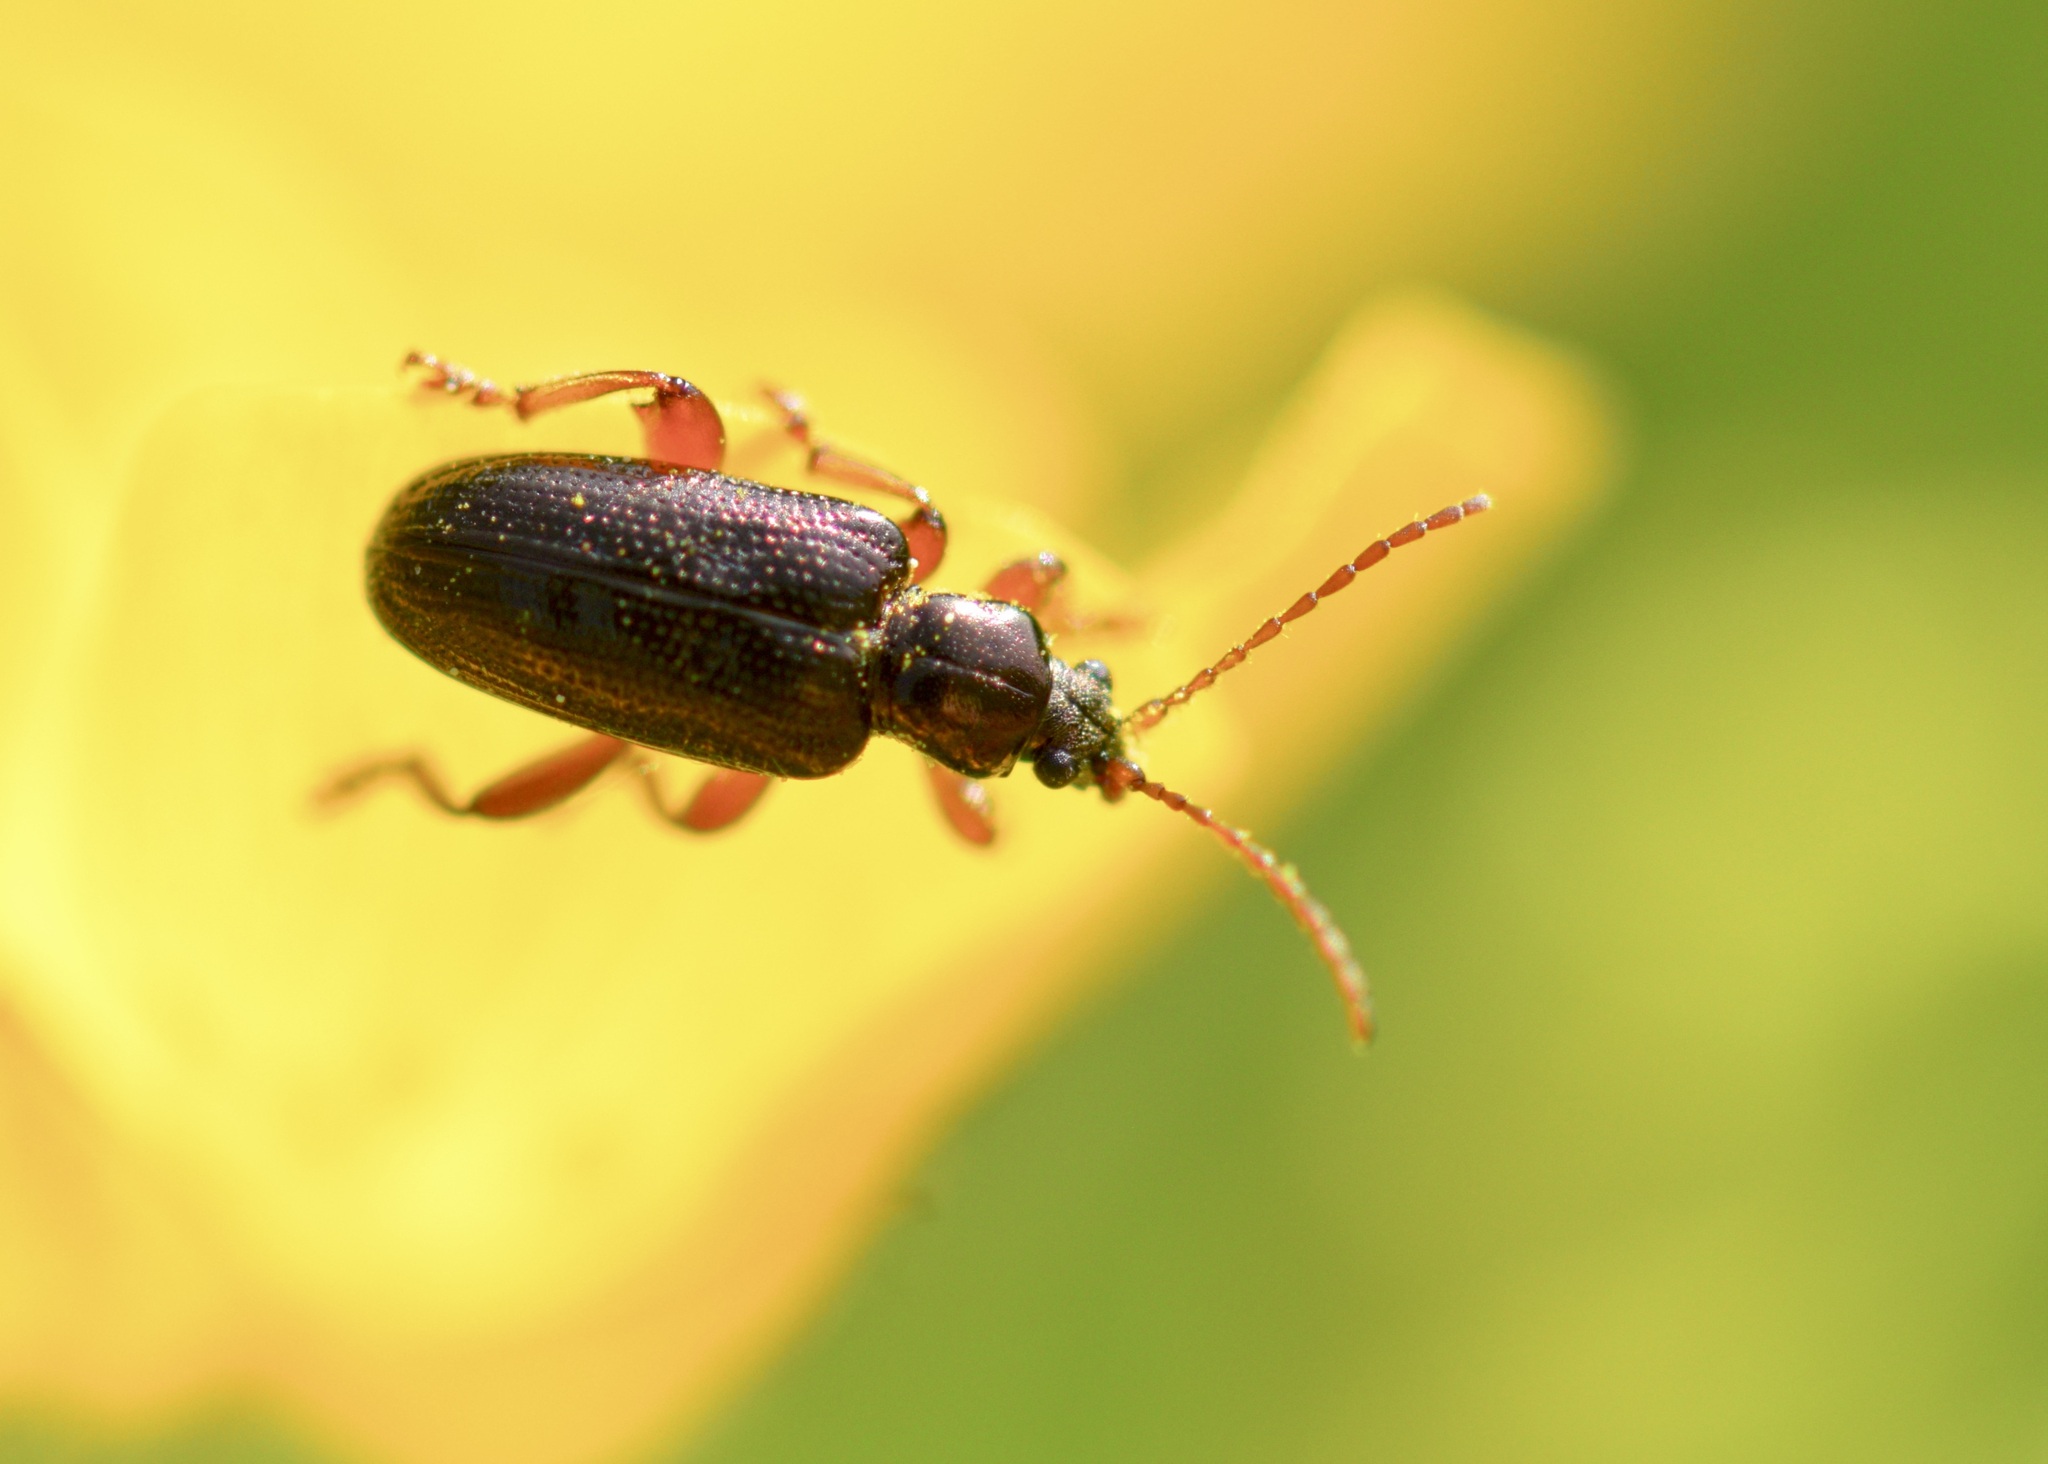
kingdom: Animalia
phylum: Arthropoda
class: Insecta
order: Coleoptera
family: Chrysomelidae
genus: Plateumaris
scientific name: Plateumaris rufa
